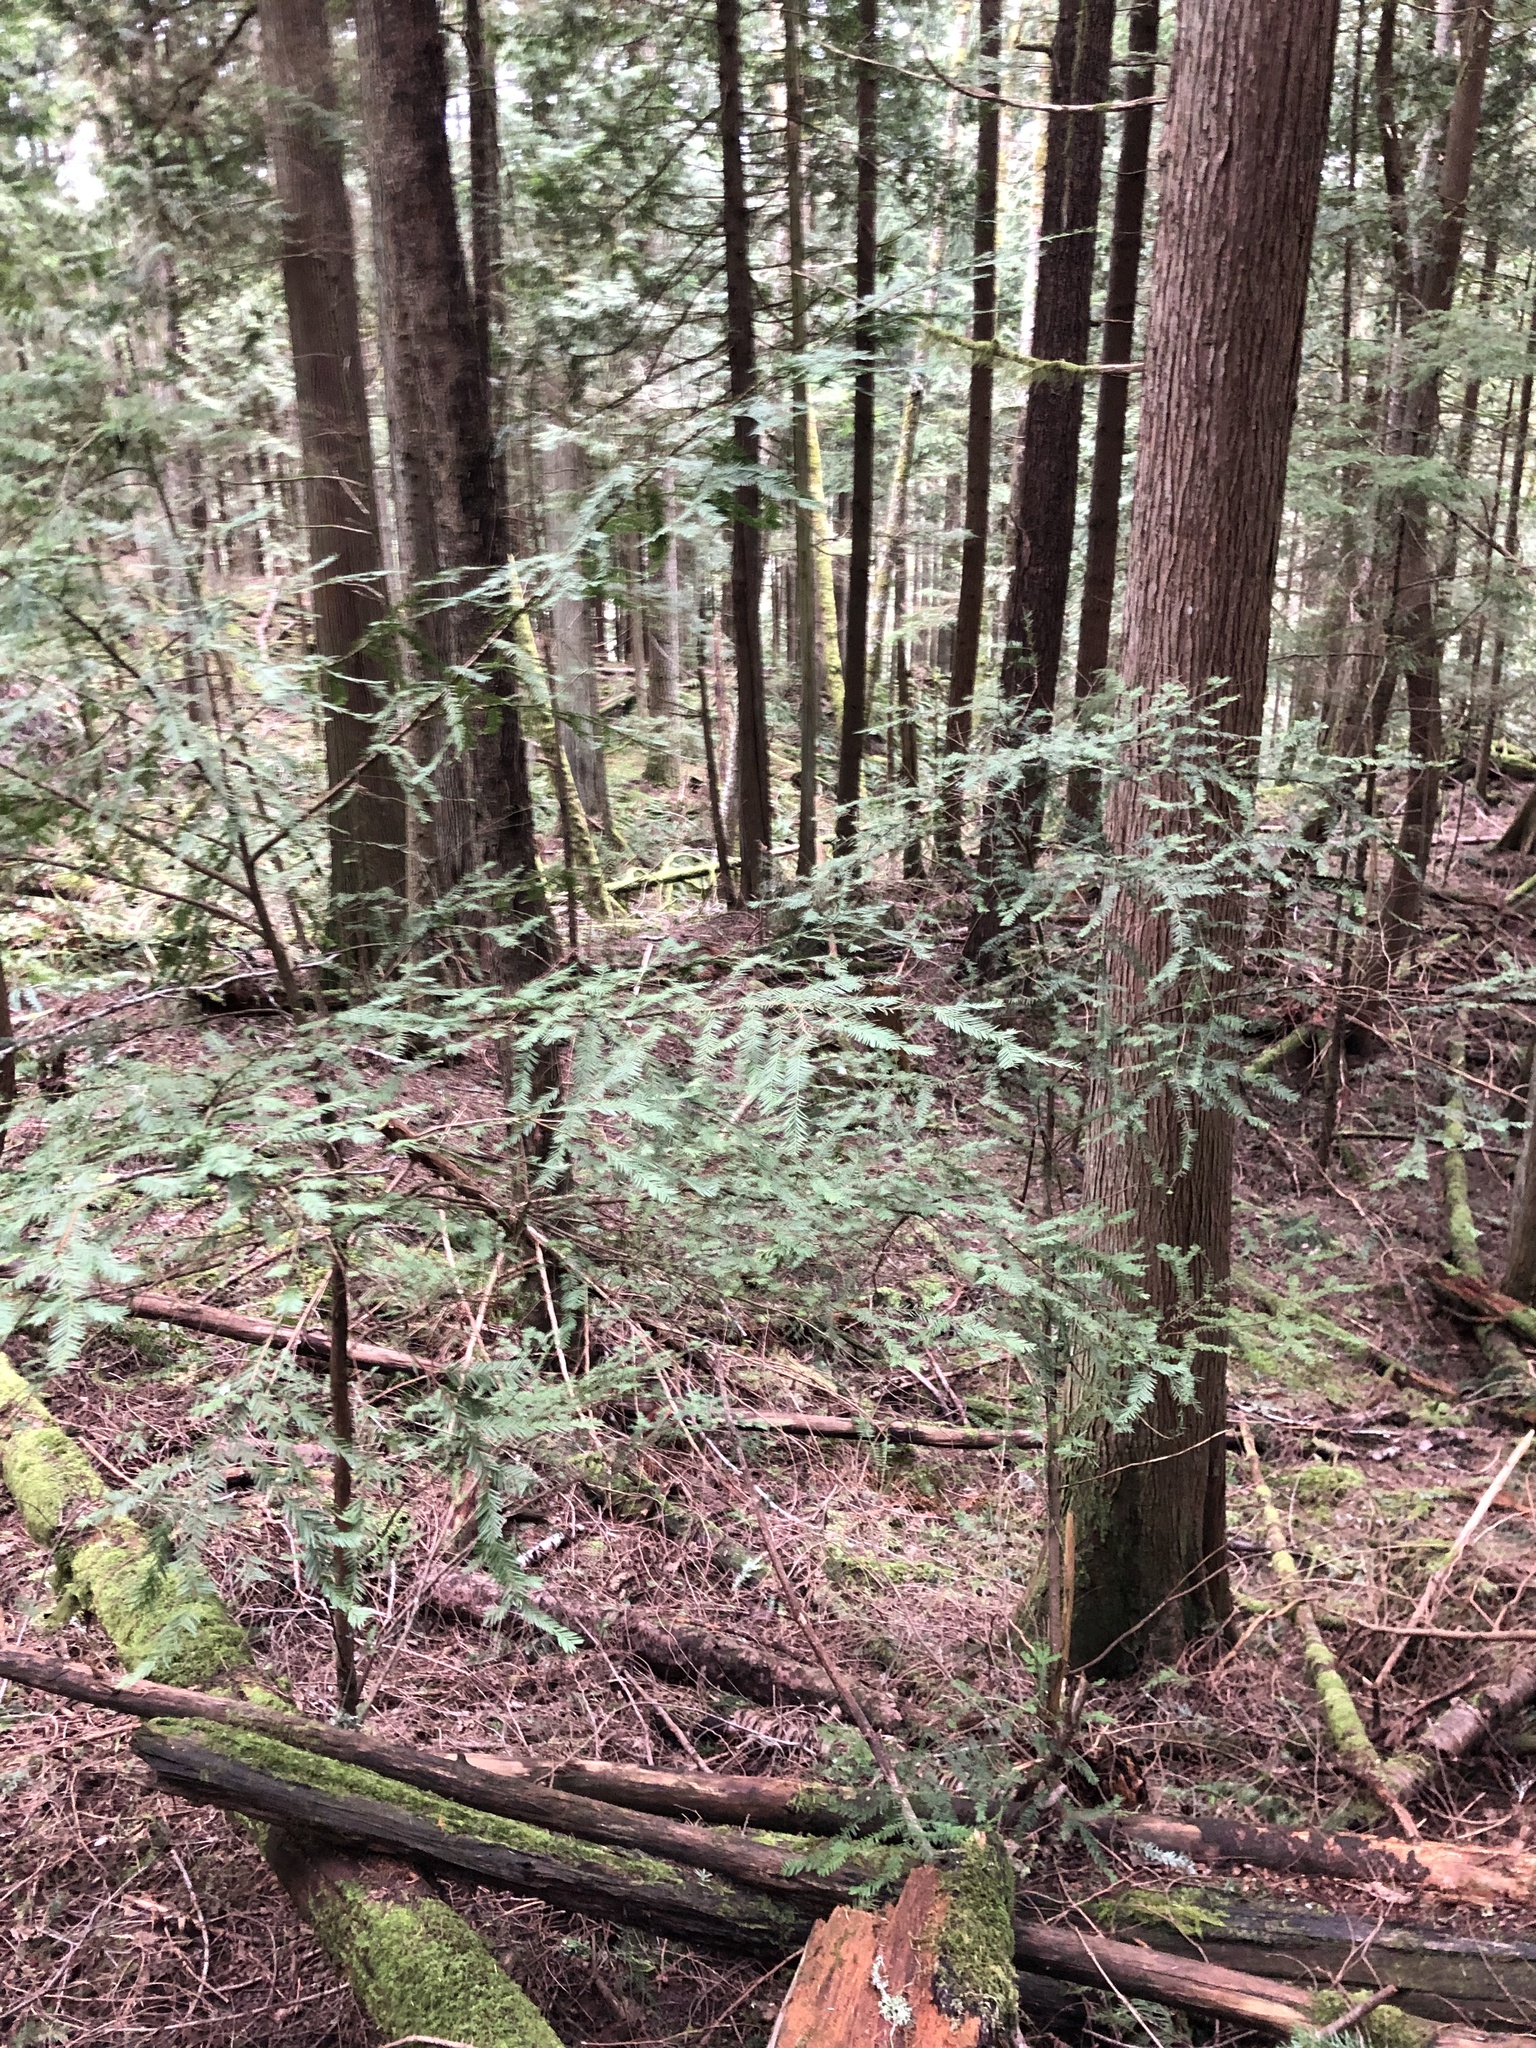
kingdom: Plantae
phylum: Tracheophyta
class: Pinopsida
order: Pinales
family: Taxaceae
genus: Taxus
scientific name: Taxus brevifolia
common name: Pacific yew
